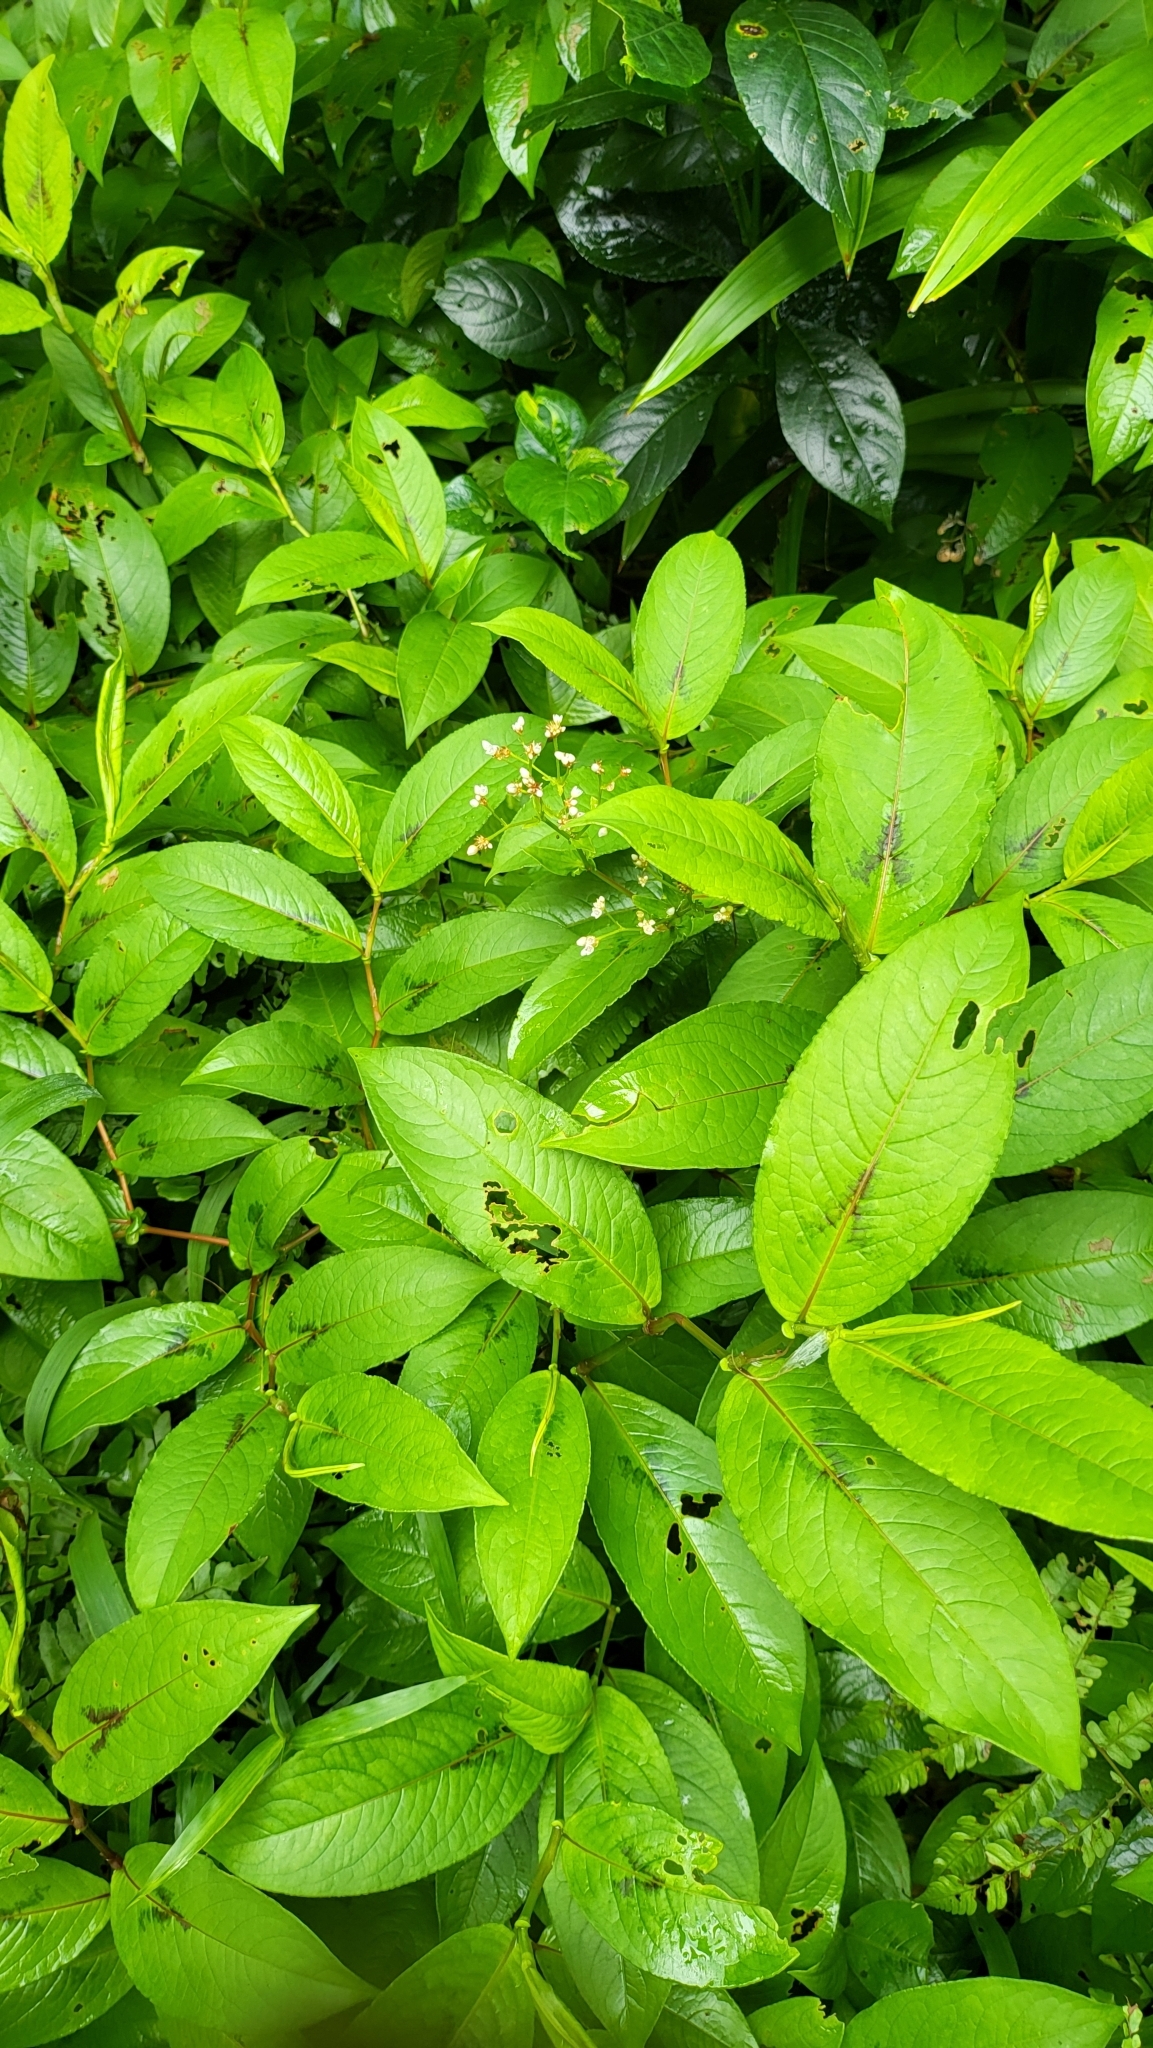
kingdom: Plantae
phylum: Tracheophyta
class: Magnoliopsida
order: Caryophyllales
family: Polygonaceae
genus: Persicaria
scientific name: Persicaria chinensis
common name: Chinese knotweed
